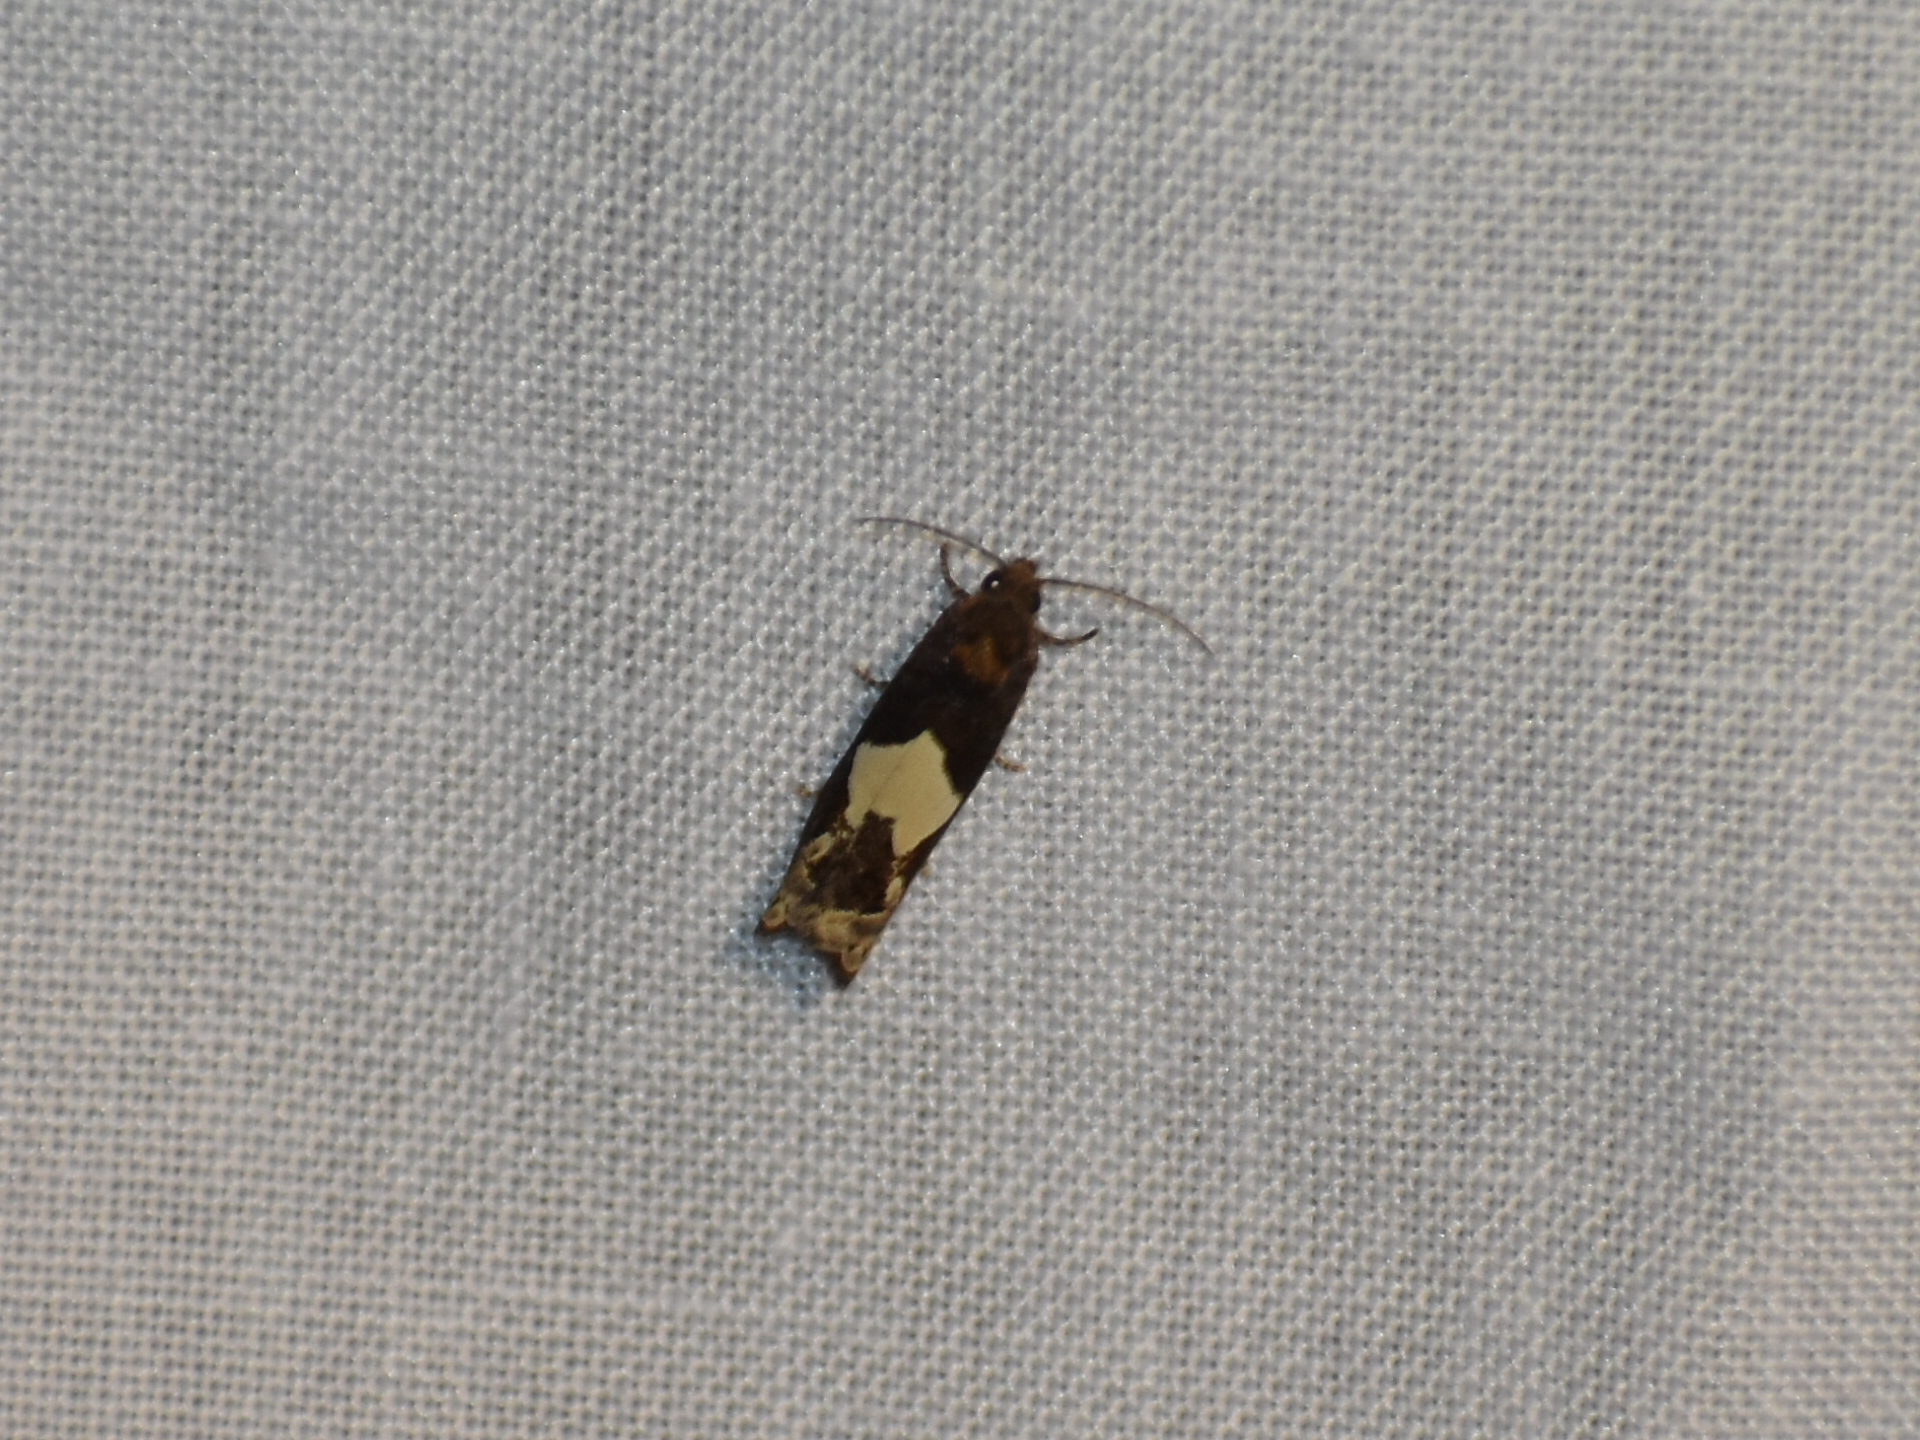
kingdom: Animalia
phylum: Arthropoda
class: Insecta
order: Lepidoptera
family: Tortricidae
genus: Epiblema
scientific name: Epiblema otiosana
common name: Bidens borer moth
